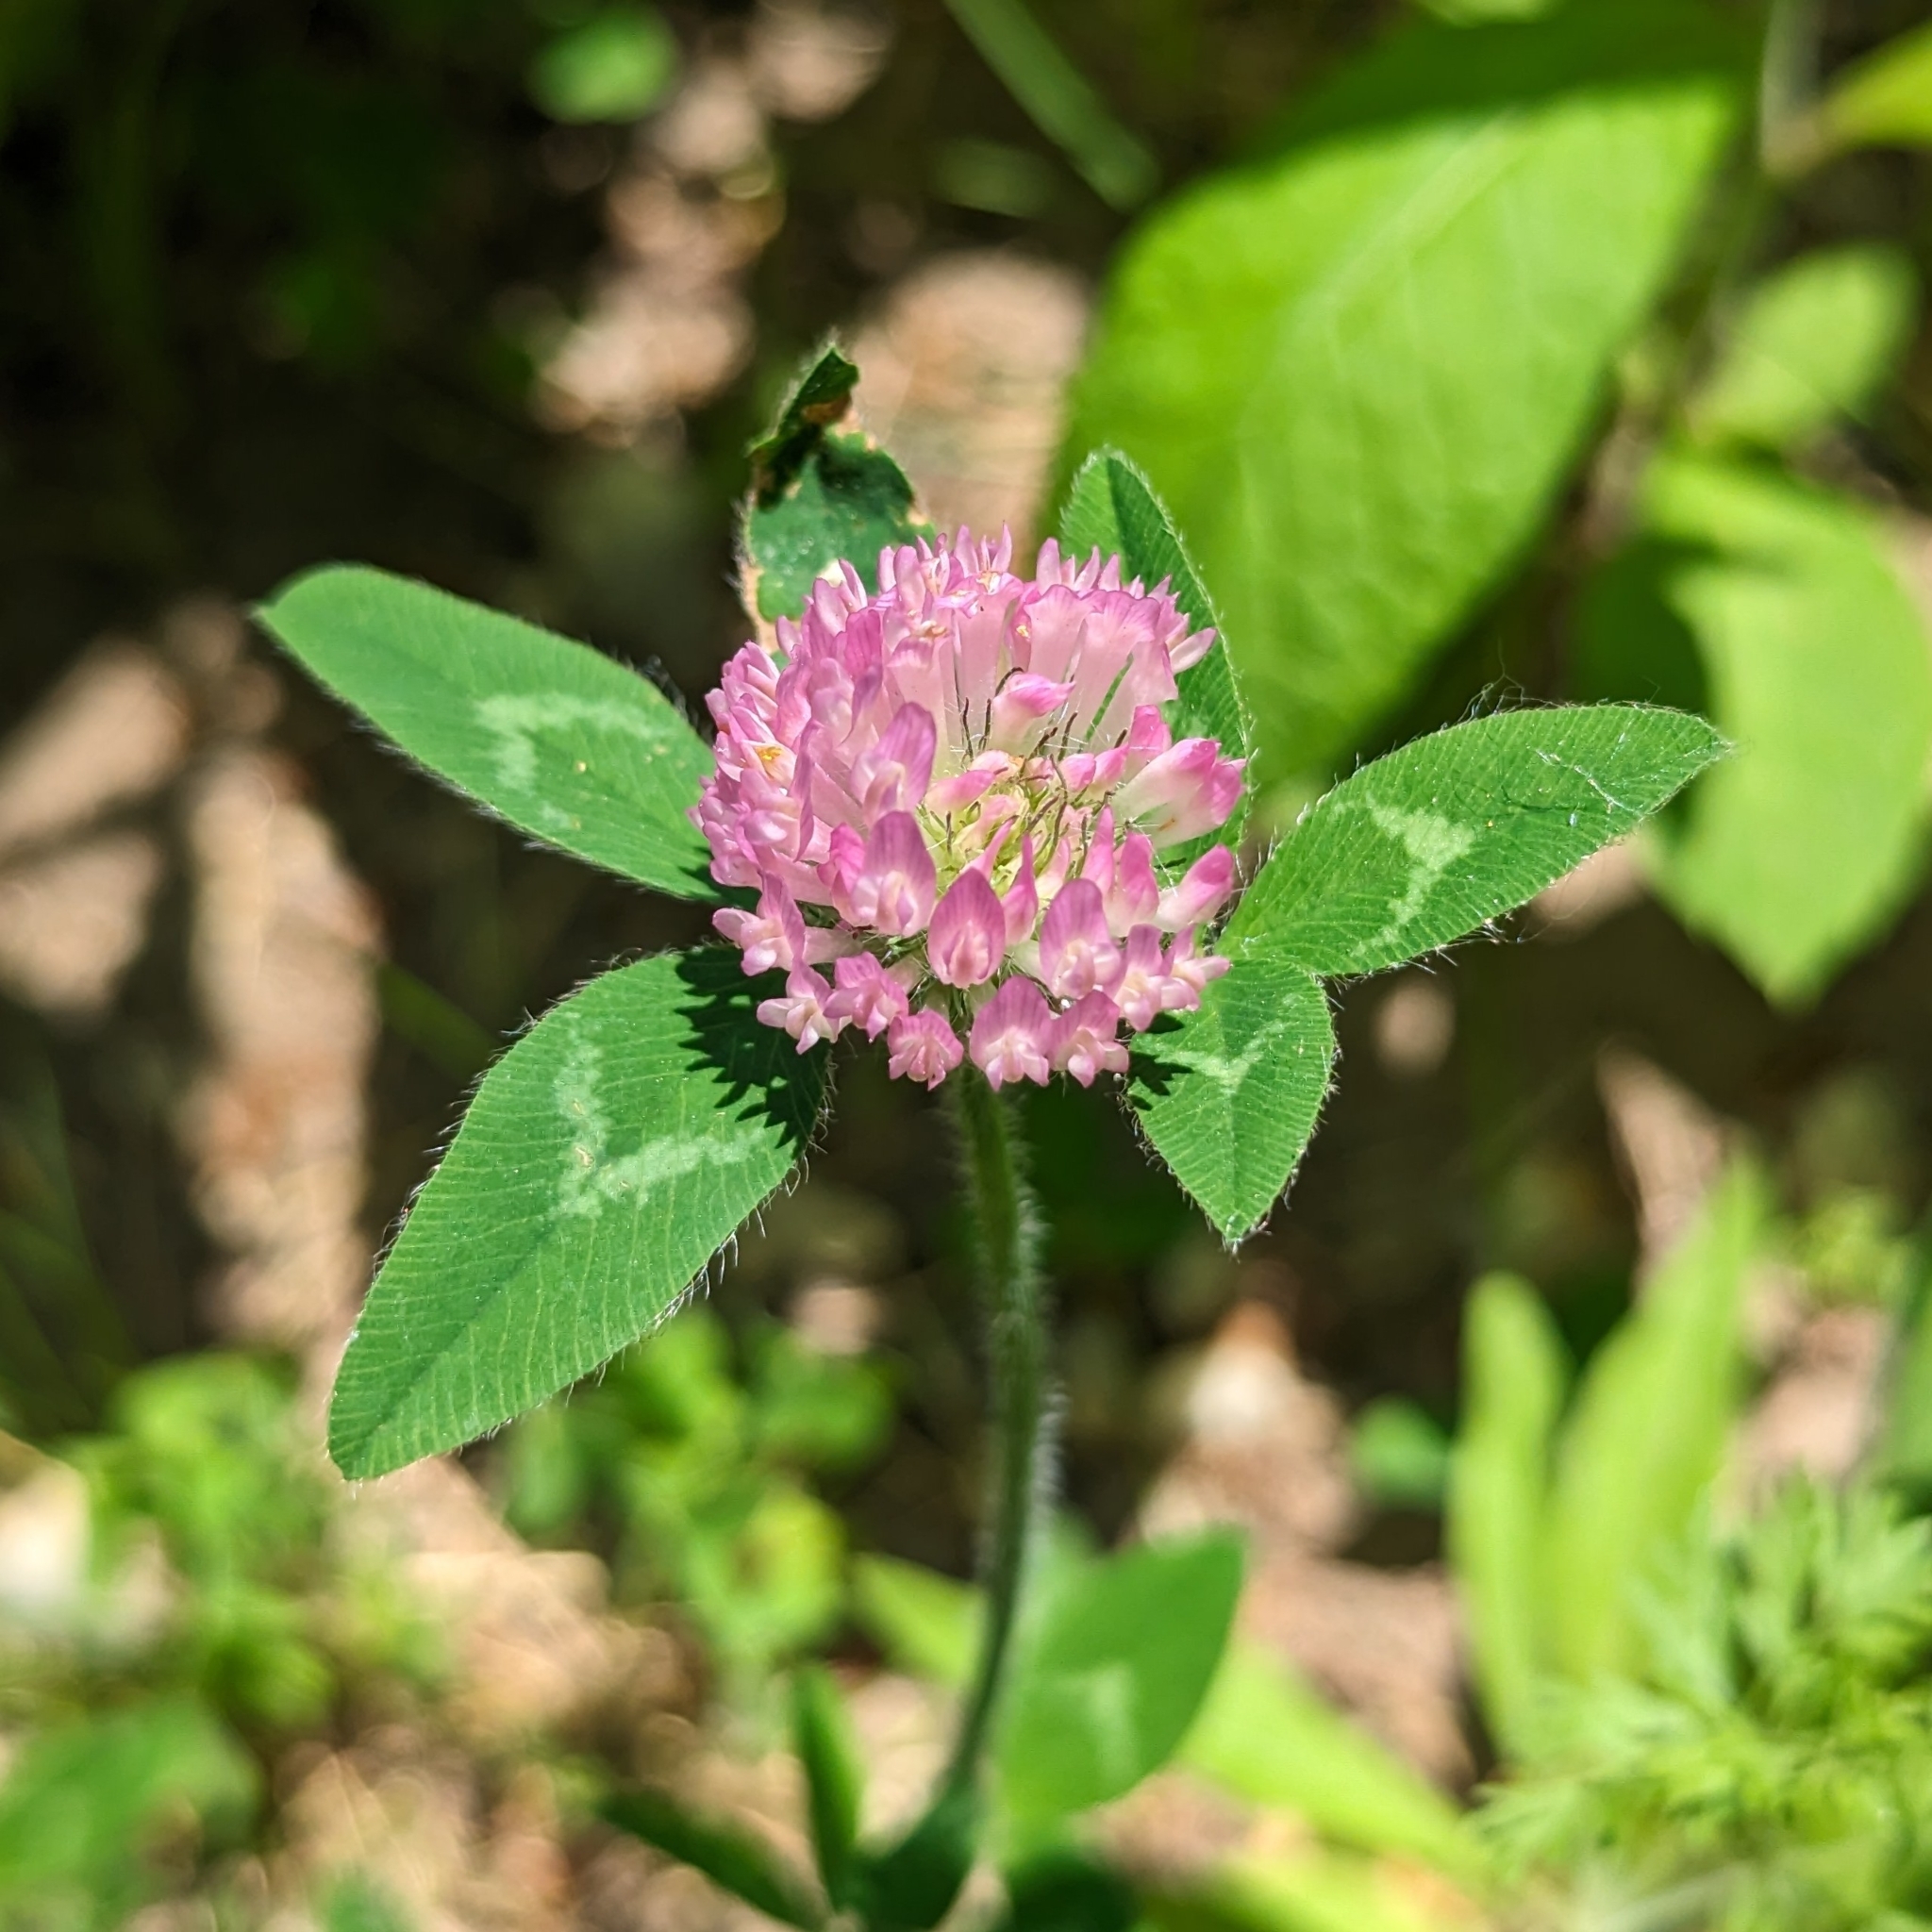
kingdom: Plantae
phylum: Tracheophyta
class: Magnoliopsida
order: Fabales
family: Fabaceae
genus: Trifolium
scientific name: Trifolium pratense
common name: Red clover
